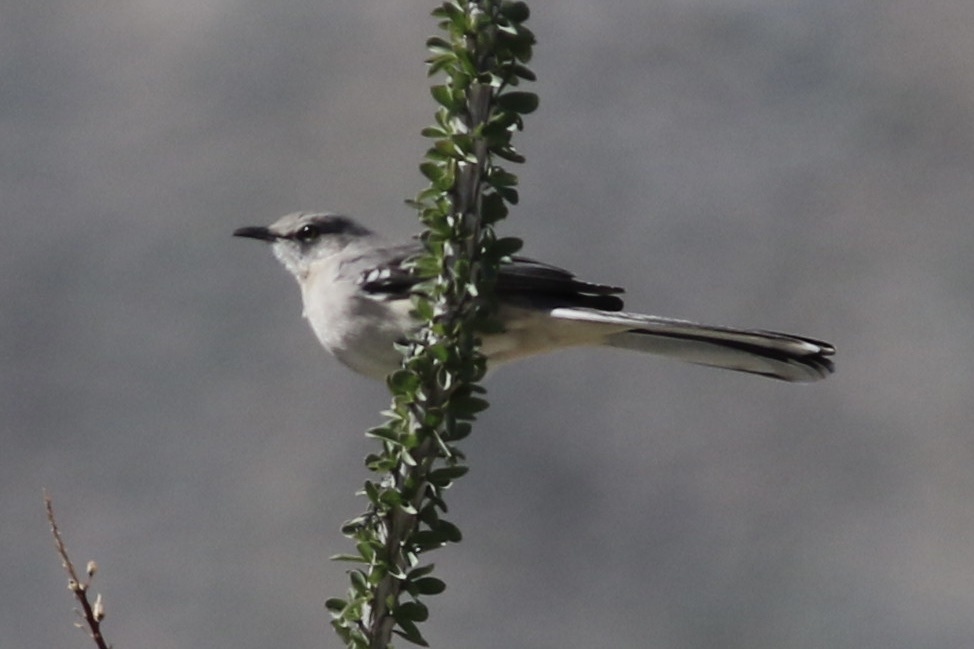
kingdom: Animalia
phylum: Chordata
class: Aves
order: Passeriformes
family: Mimidae
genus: Mimus
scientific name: Mimus polyglottos
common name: Northern mockingbird
